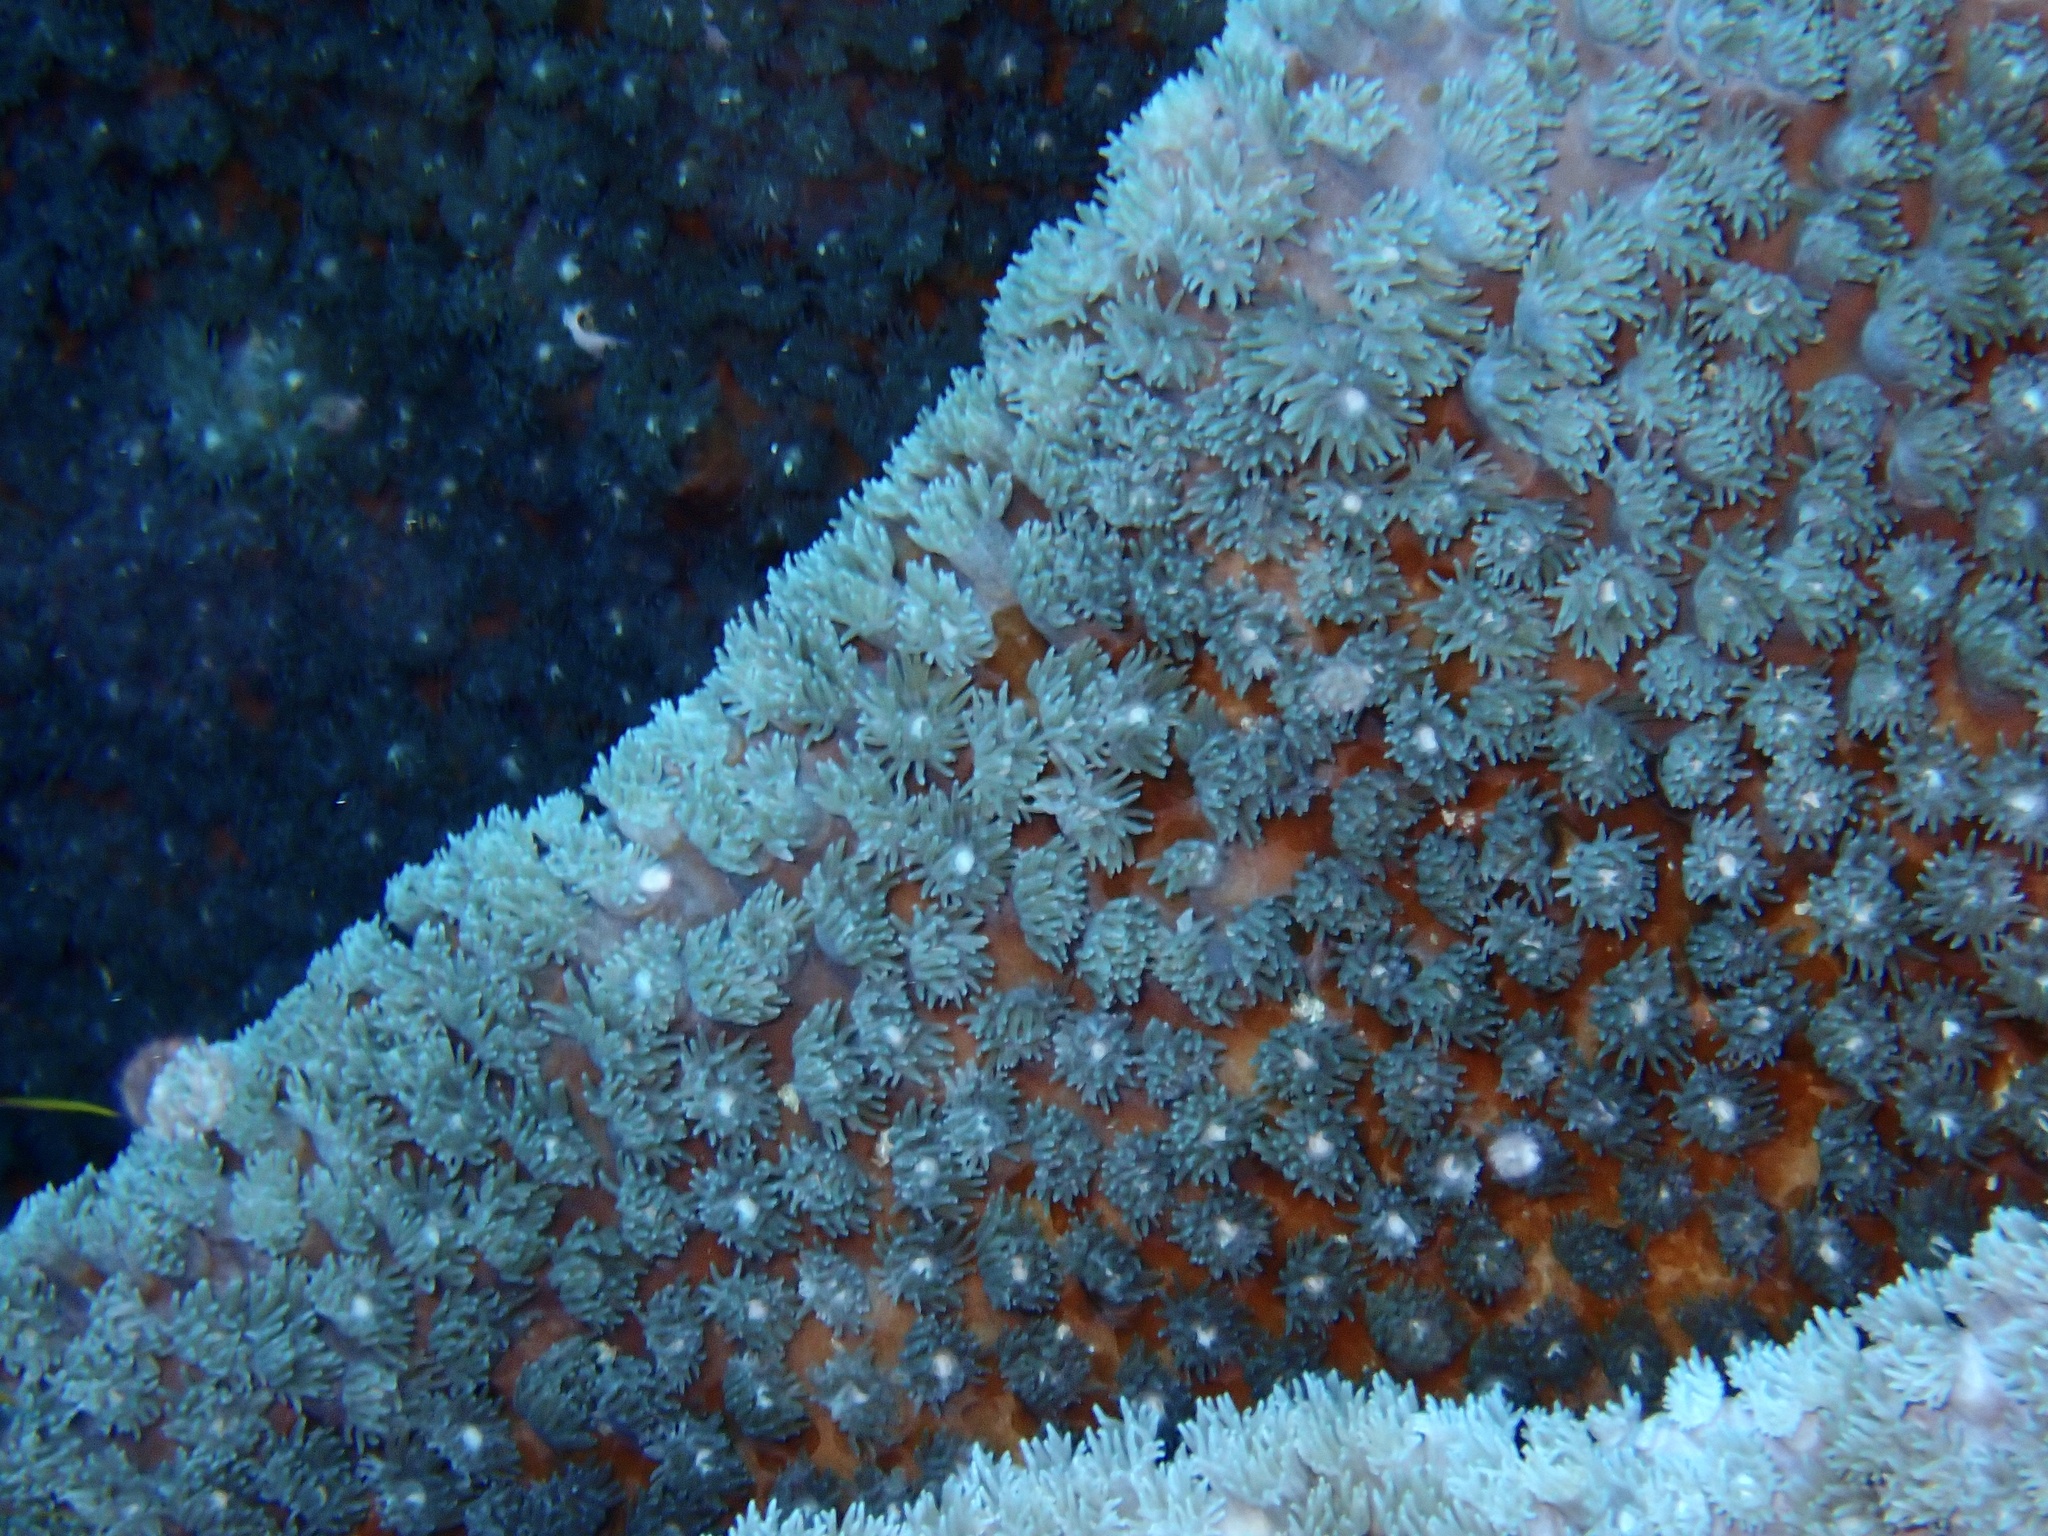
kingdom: Animalia
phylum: Cnidaria
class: Anthozoa
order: Scleractinia
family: Dendrophylliidae
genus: Duncanopsammia
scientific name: Duncanopsammia peltata
